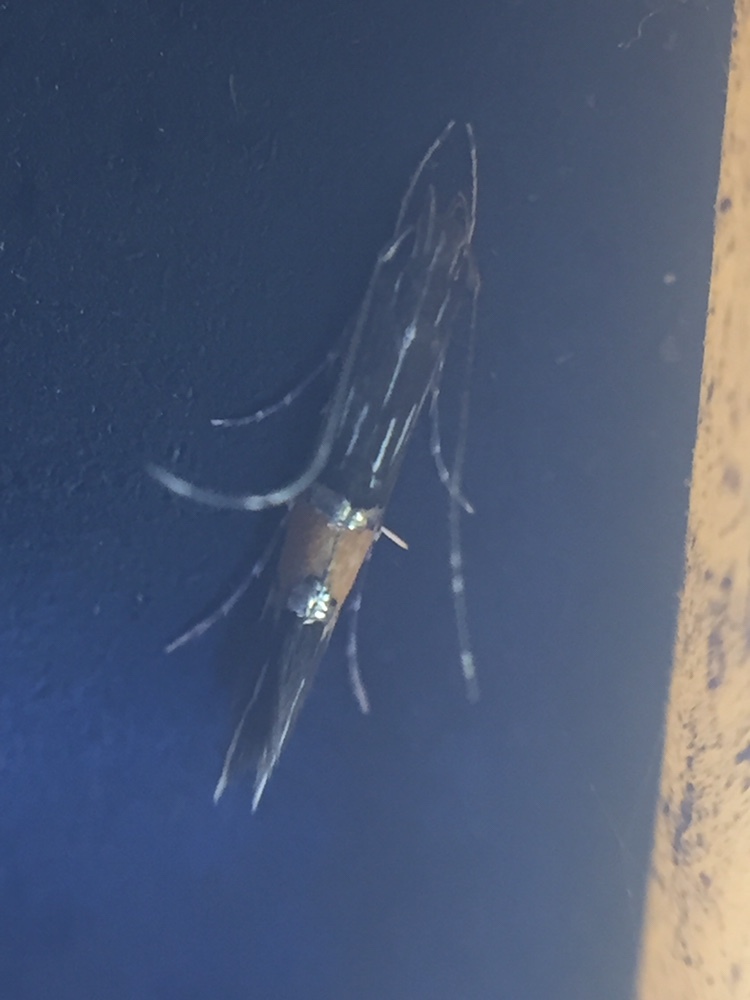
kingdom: Animalia
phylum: Arthropoda
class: Insecta
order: Lepidoptera
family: Cosmopterigidae
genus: Cosmopterix
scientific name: Cosmopterix attenuatella
